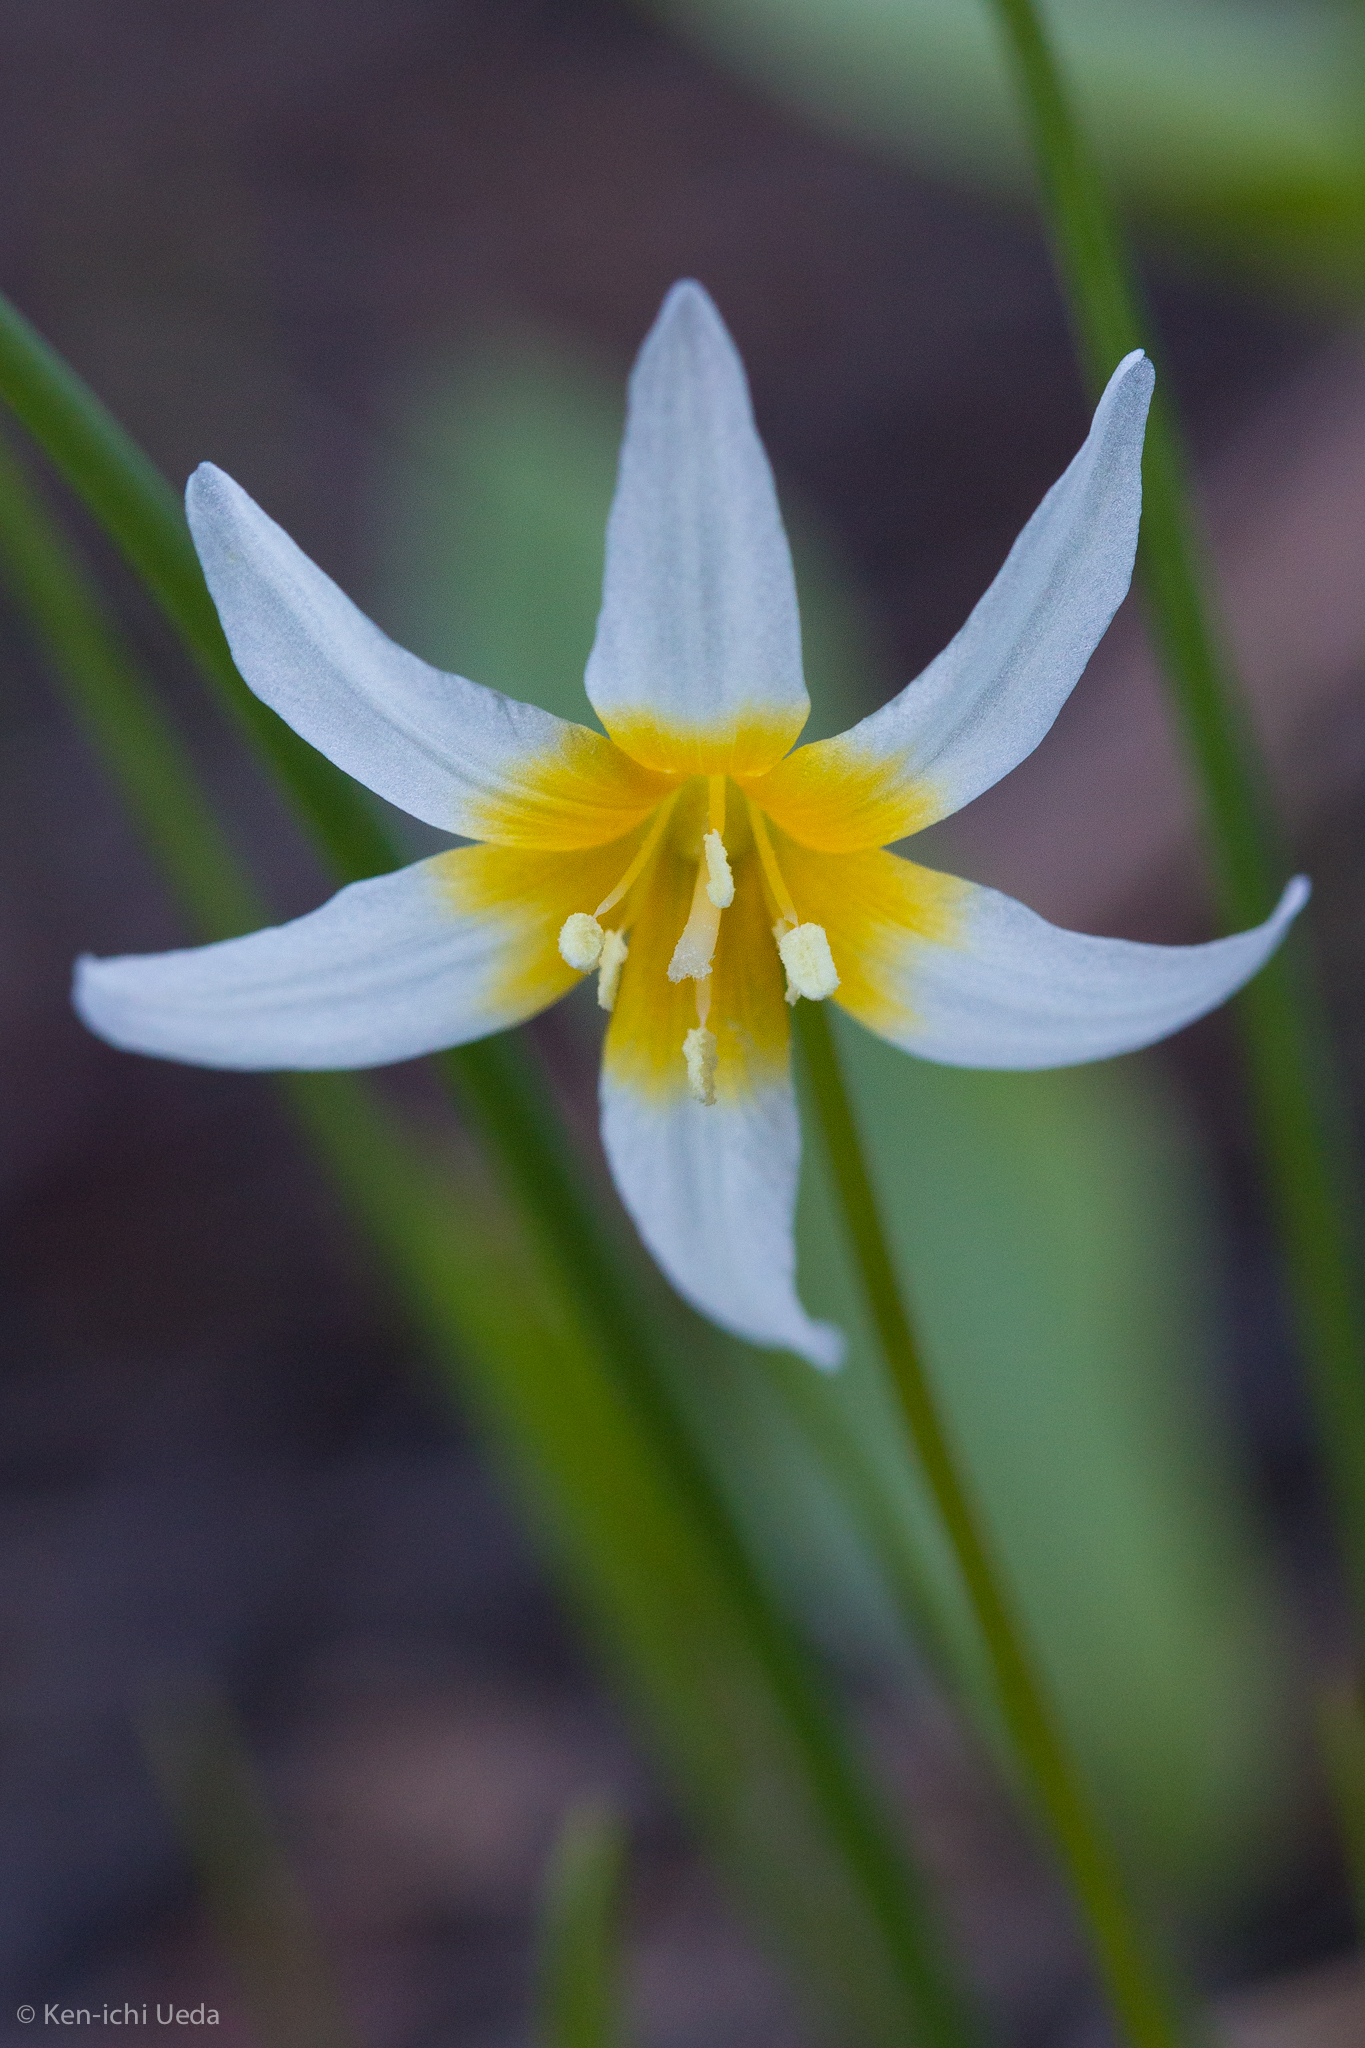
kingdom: Plantae
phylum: Tracheophyta
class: Liliopsida
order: Liliales
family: Liliaceae
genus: Erythronium
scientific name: Erythronium purpurascens
